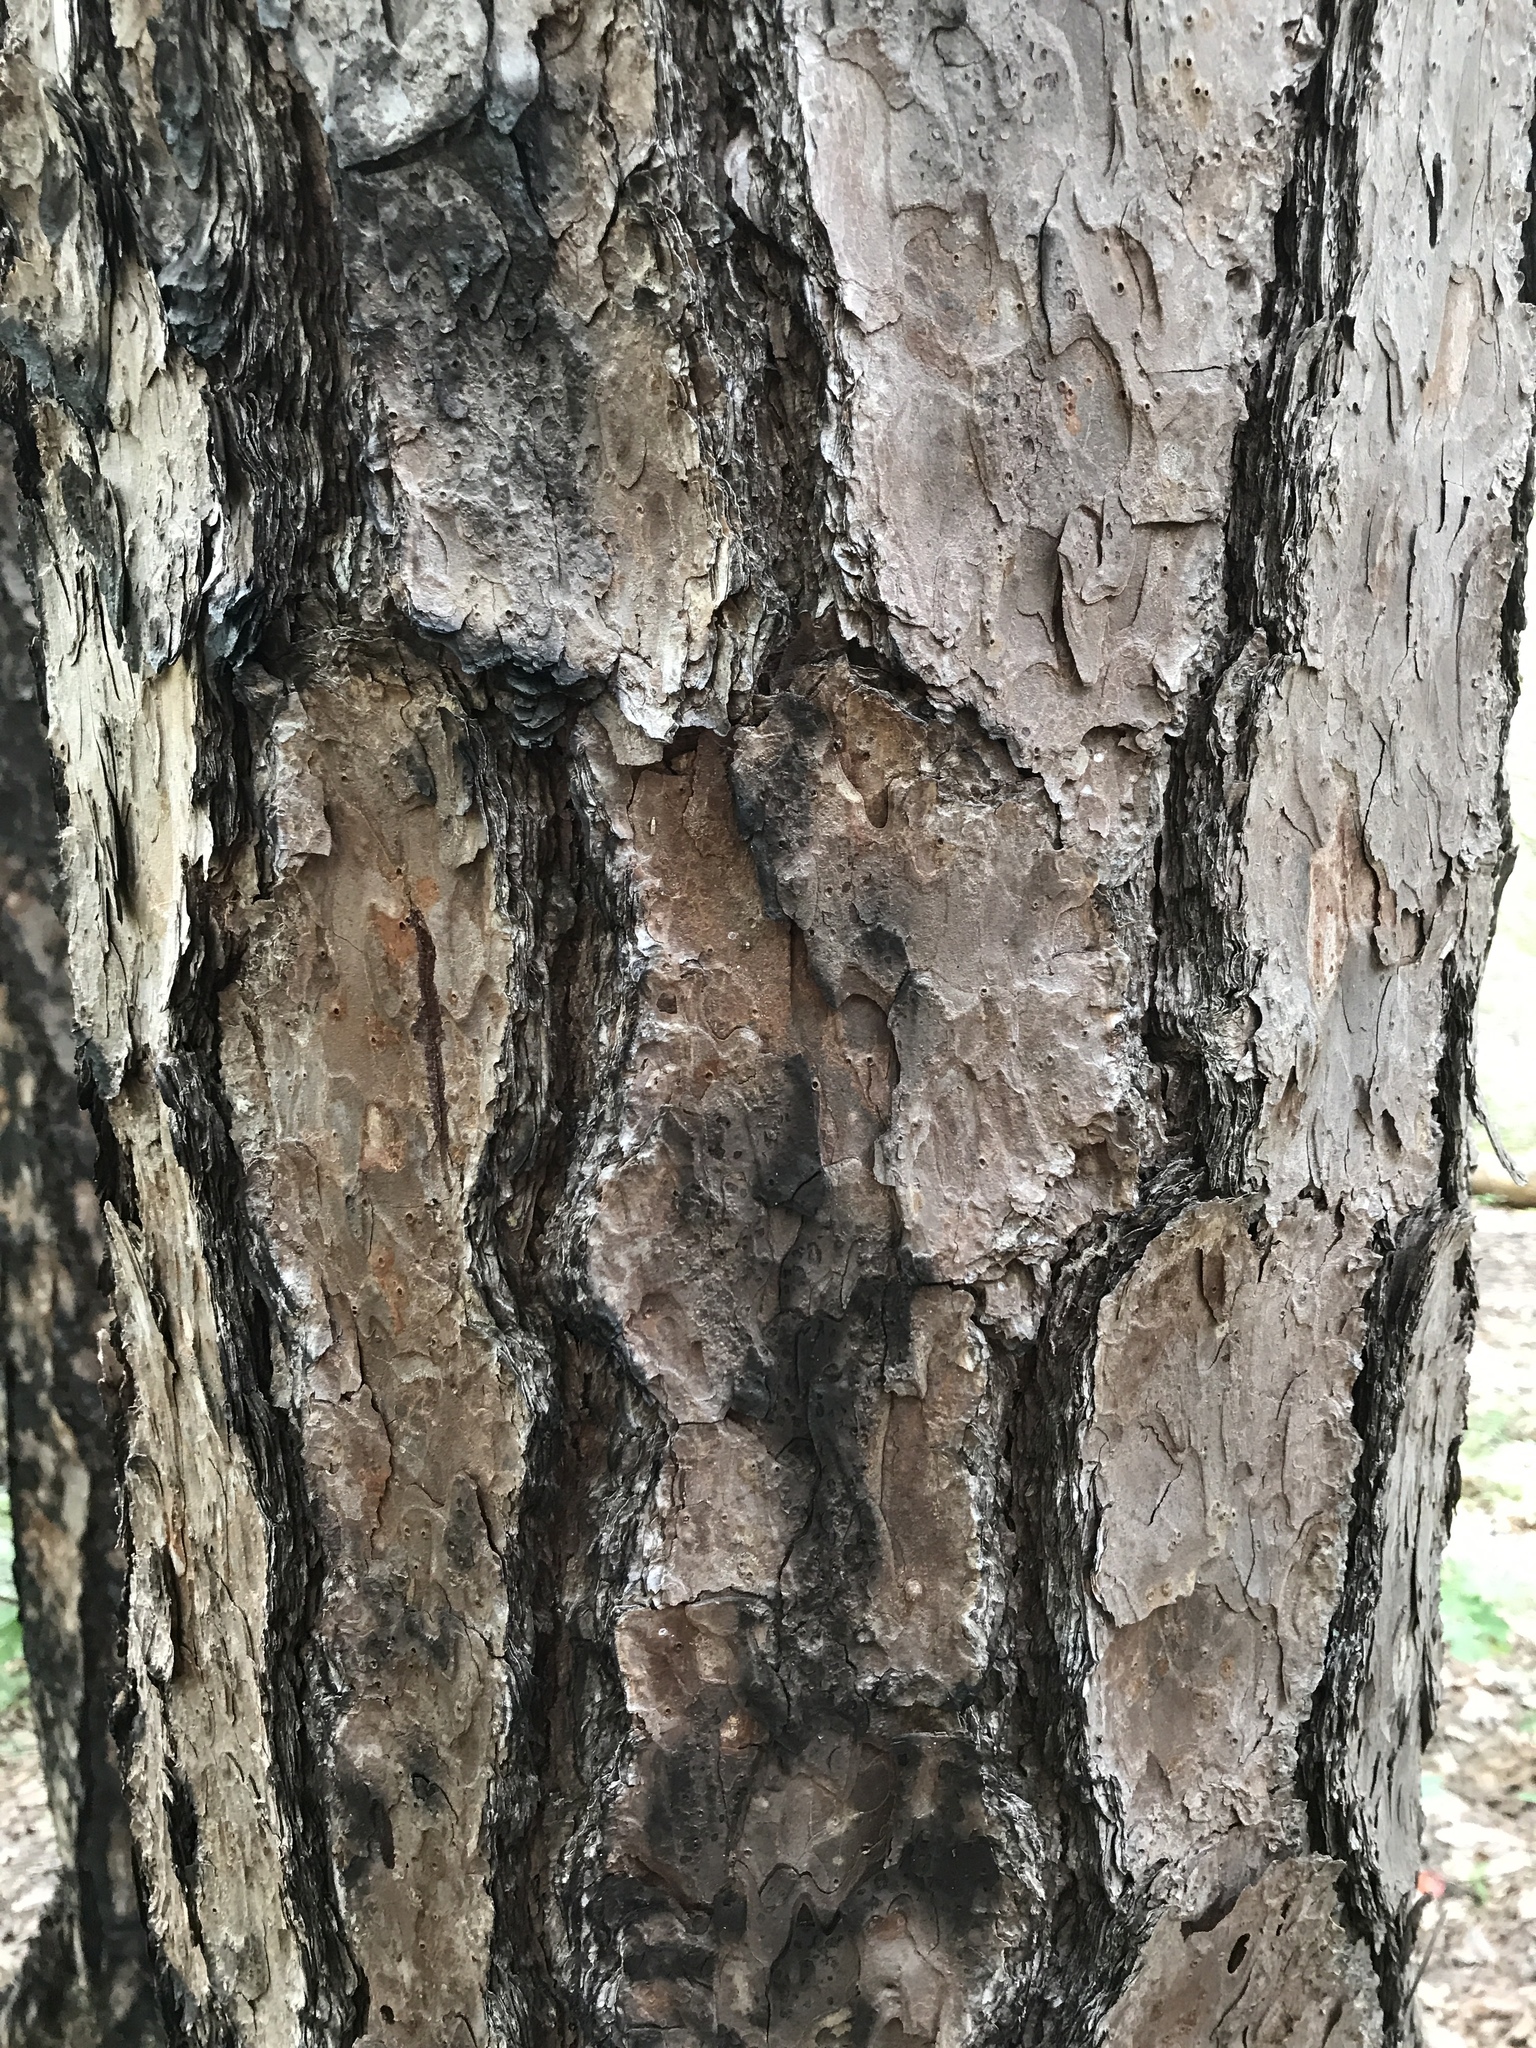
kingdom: Plantae
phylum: Tracheophyta
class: Pinopsida
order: Pinales
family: Pinaceae
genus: Pinus
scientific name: Pinus echinata
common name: Shortleaf pine
